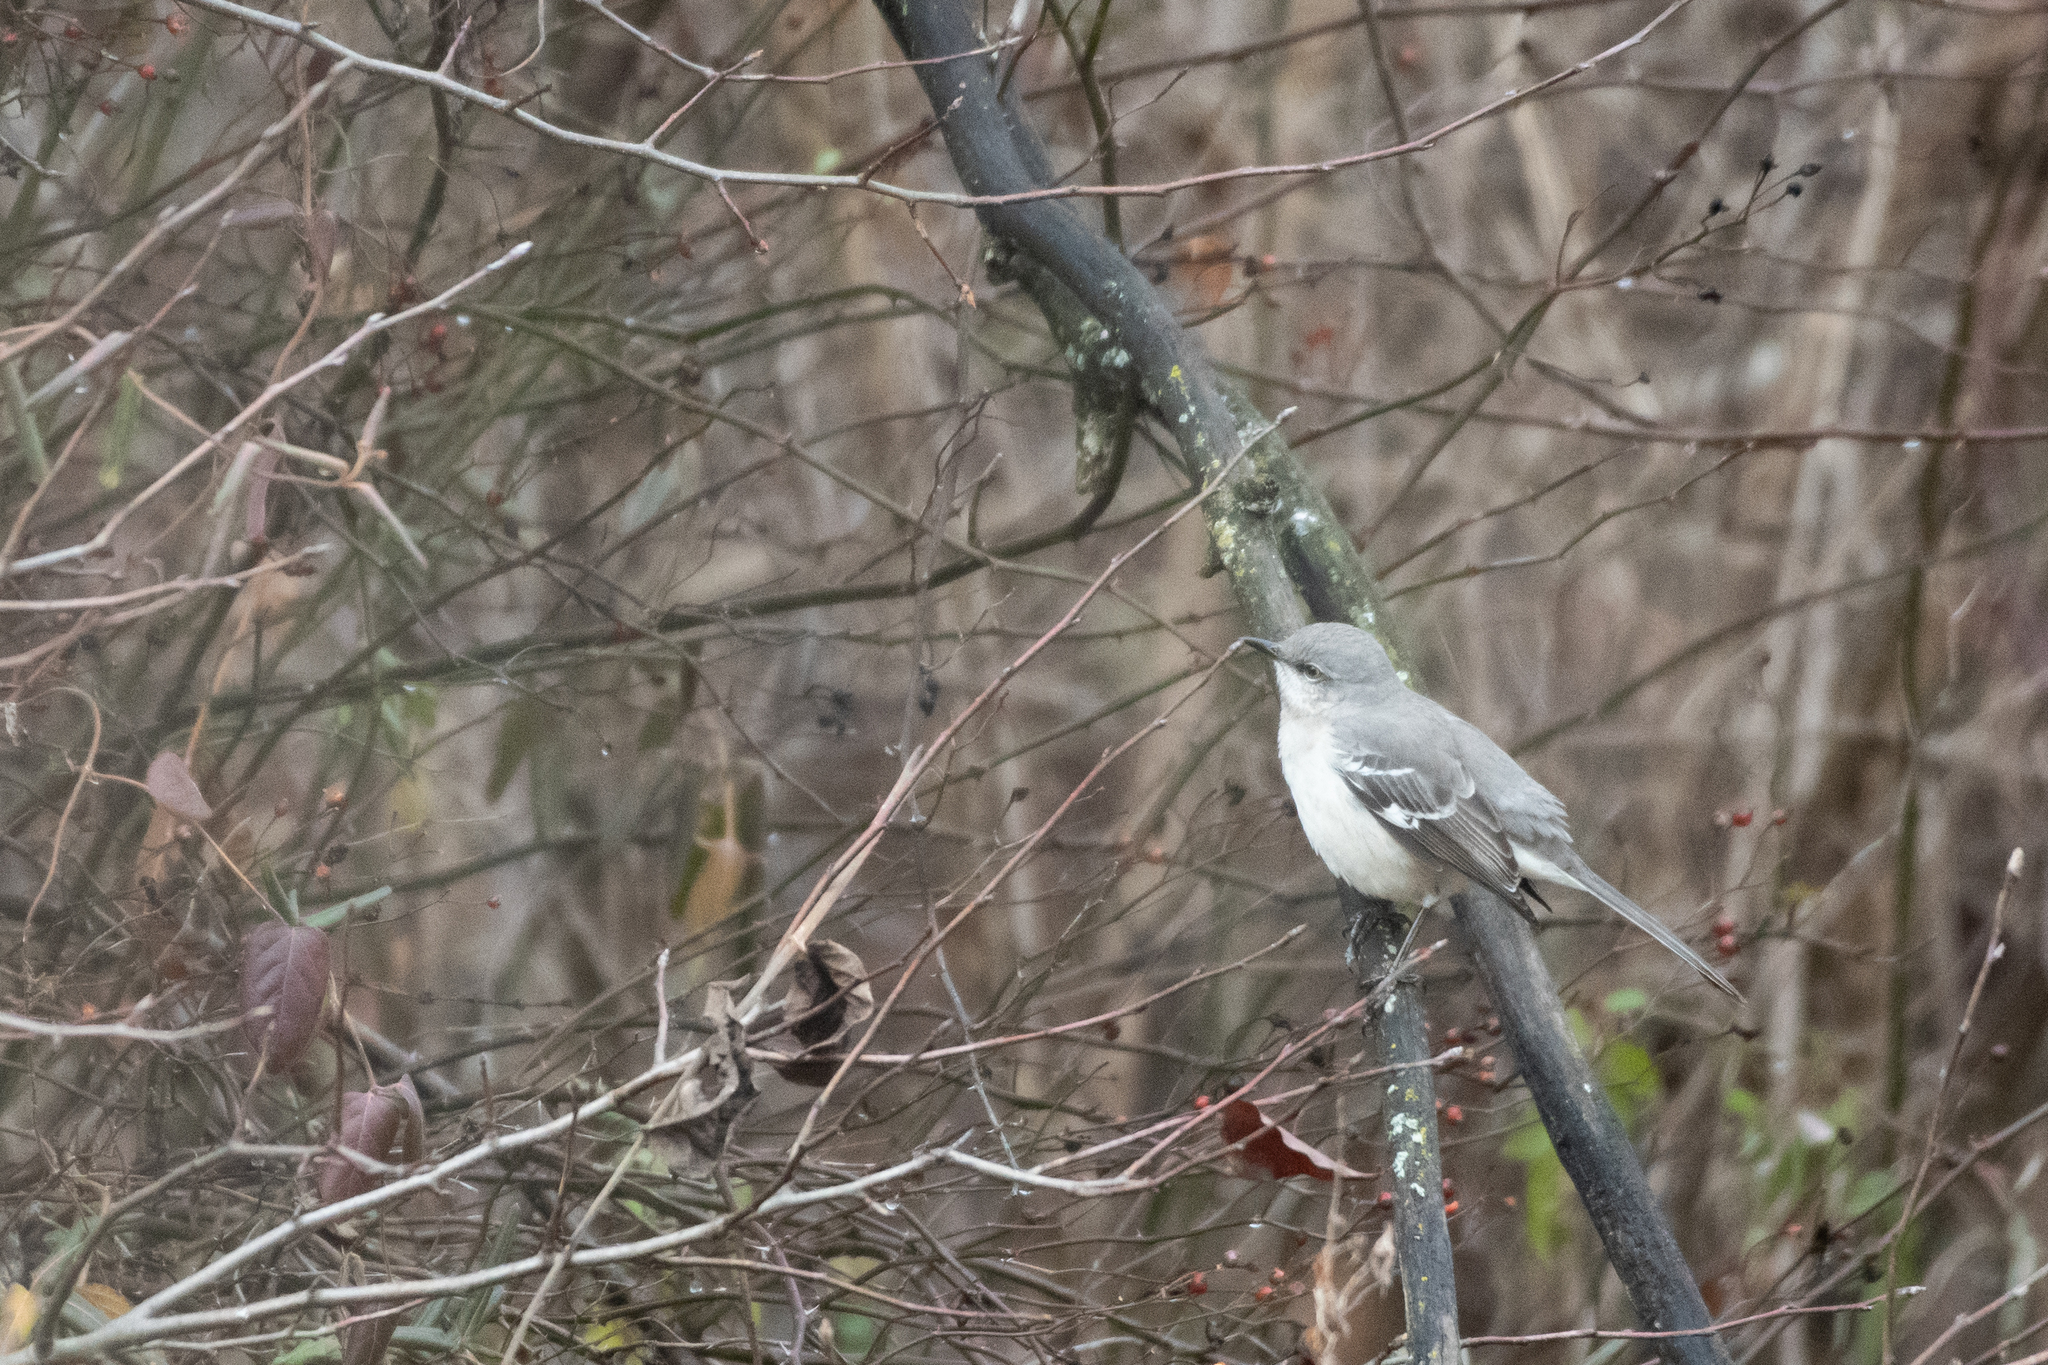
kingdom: Animalia
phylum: Chordata
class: Aves
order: Passeriformes
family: Mimidae
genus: Mimus
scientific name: Mimus polyglottos
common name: Northern mockingbird
